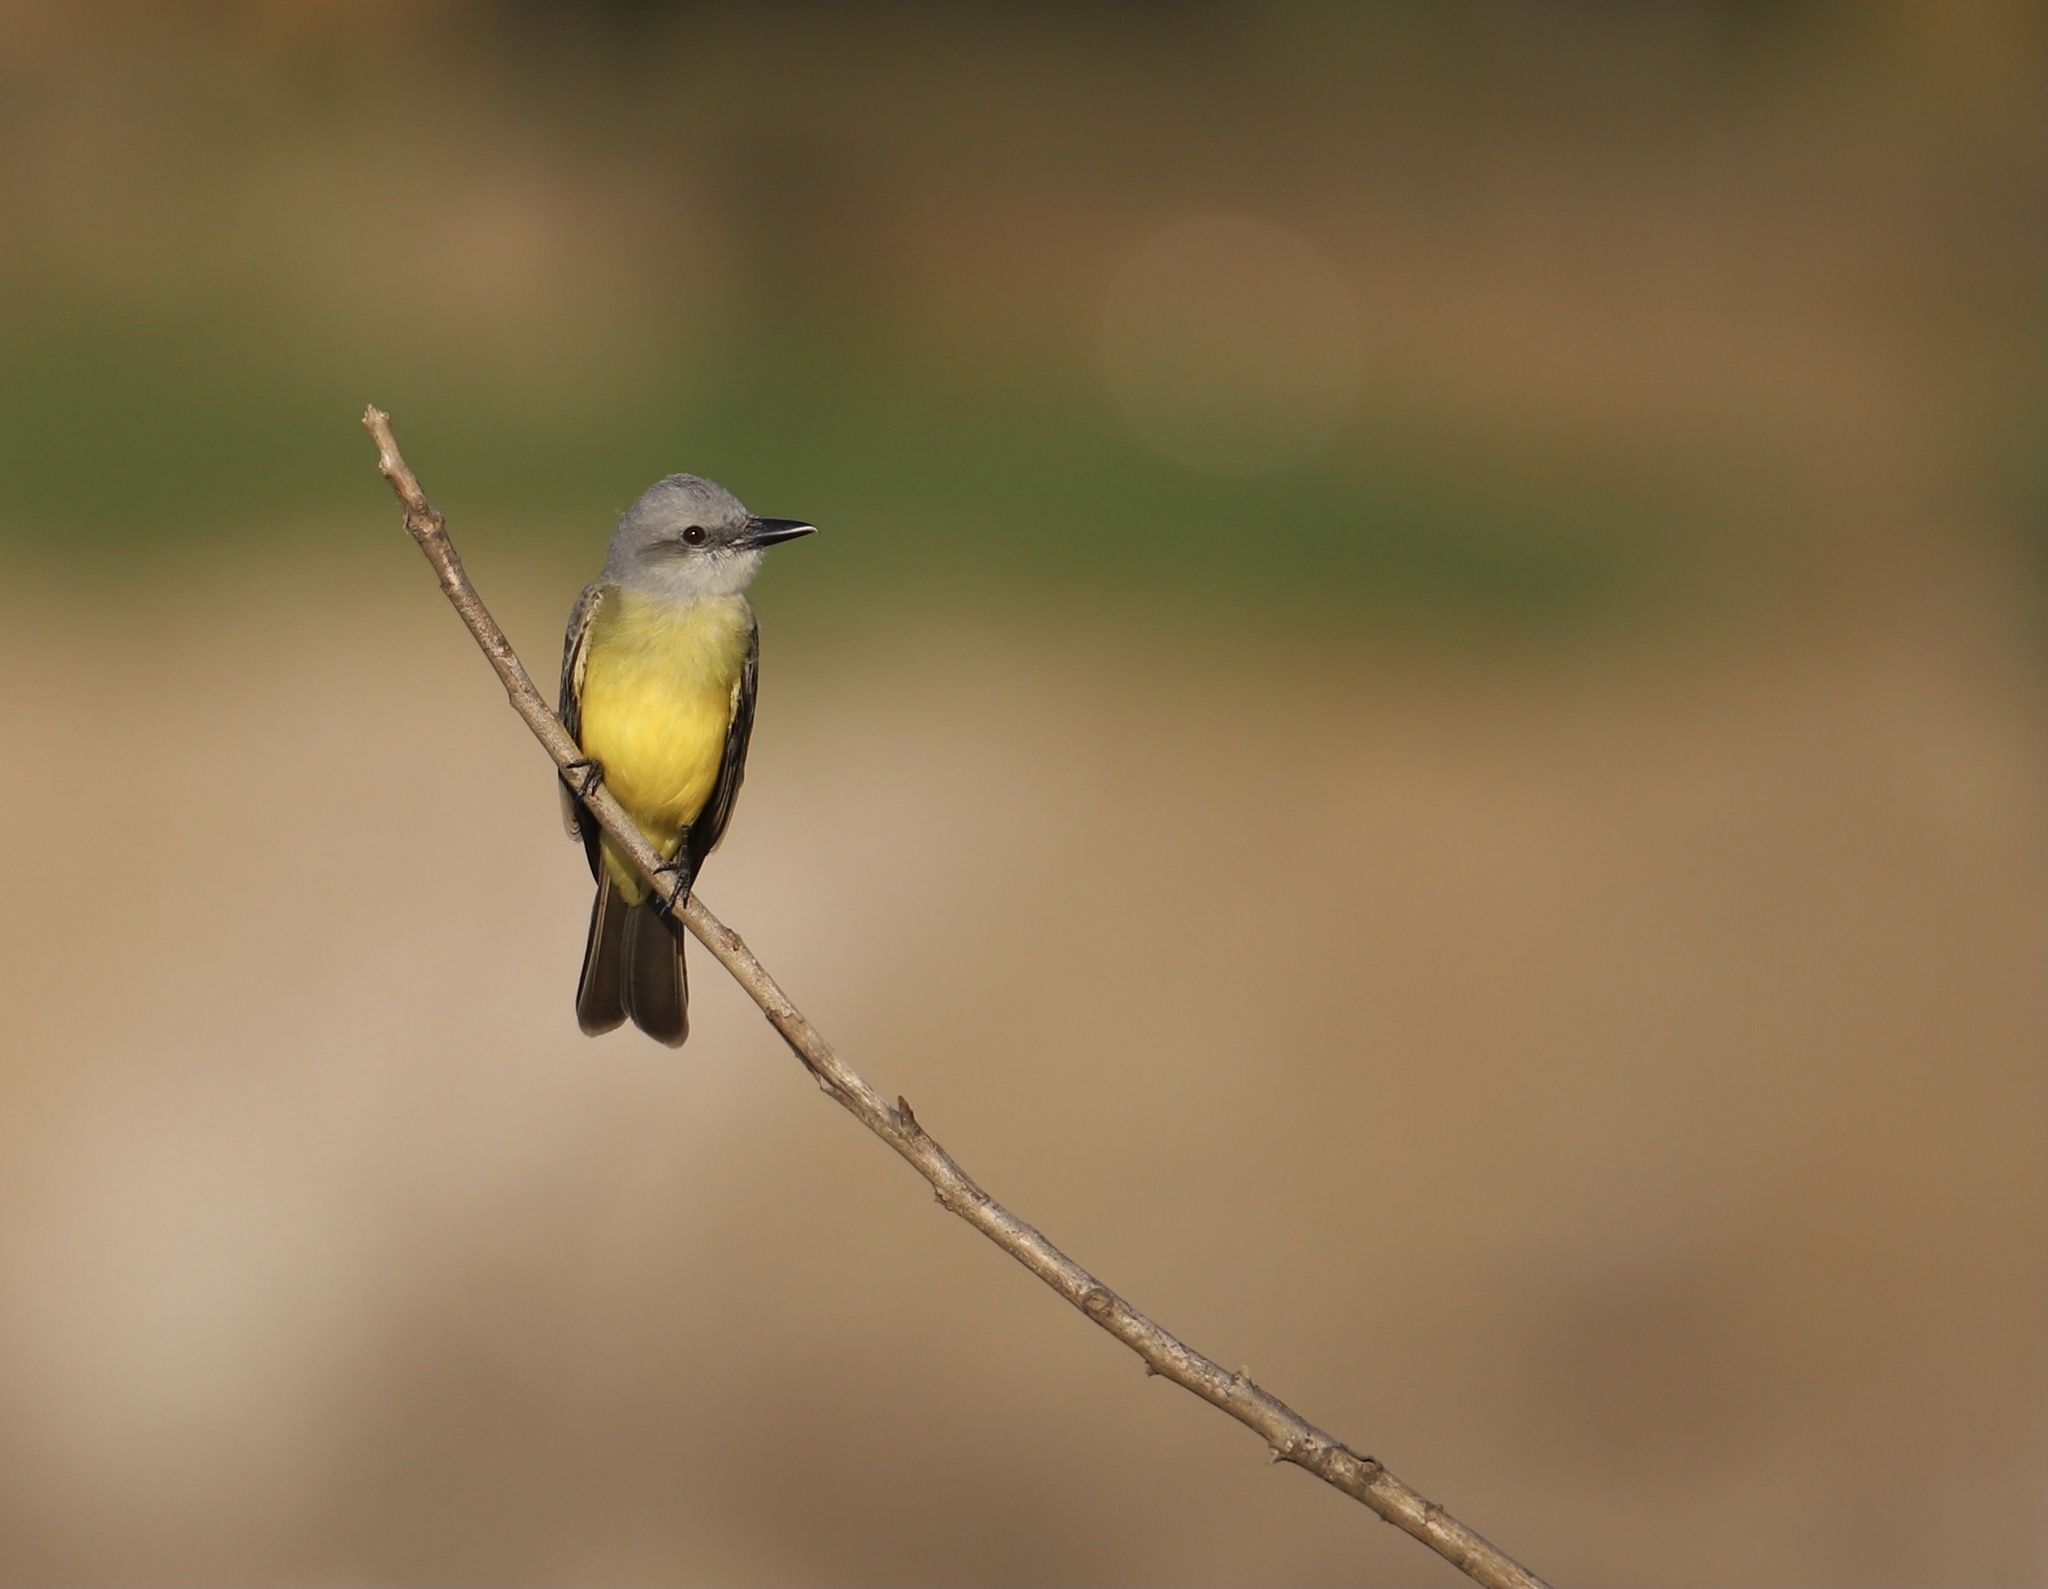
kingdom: Animalia
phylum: Chordata
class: Aves
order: Passeriformes
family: Tyrannidae
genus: Tyrannus
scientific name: Tyrannus melancholicus
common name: Tropical kingbird
